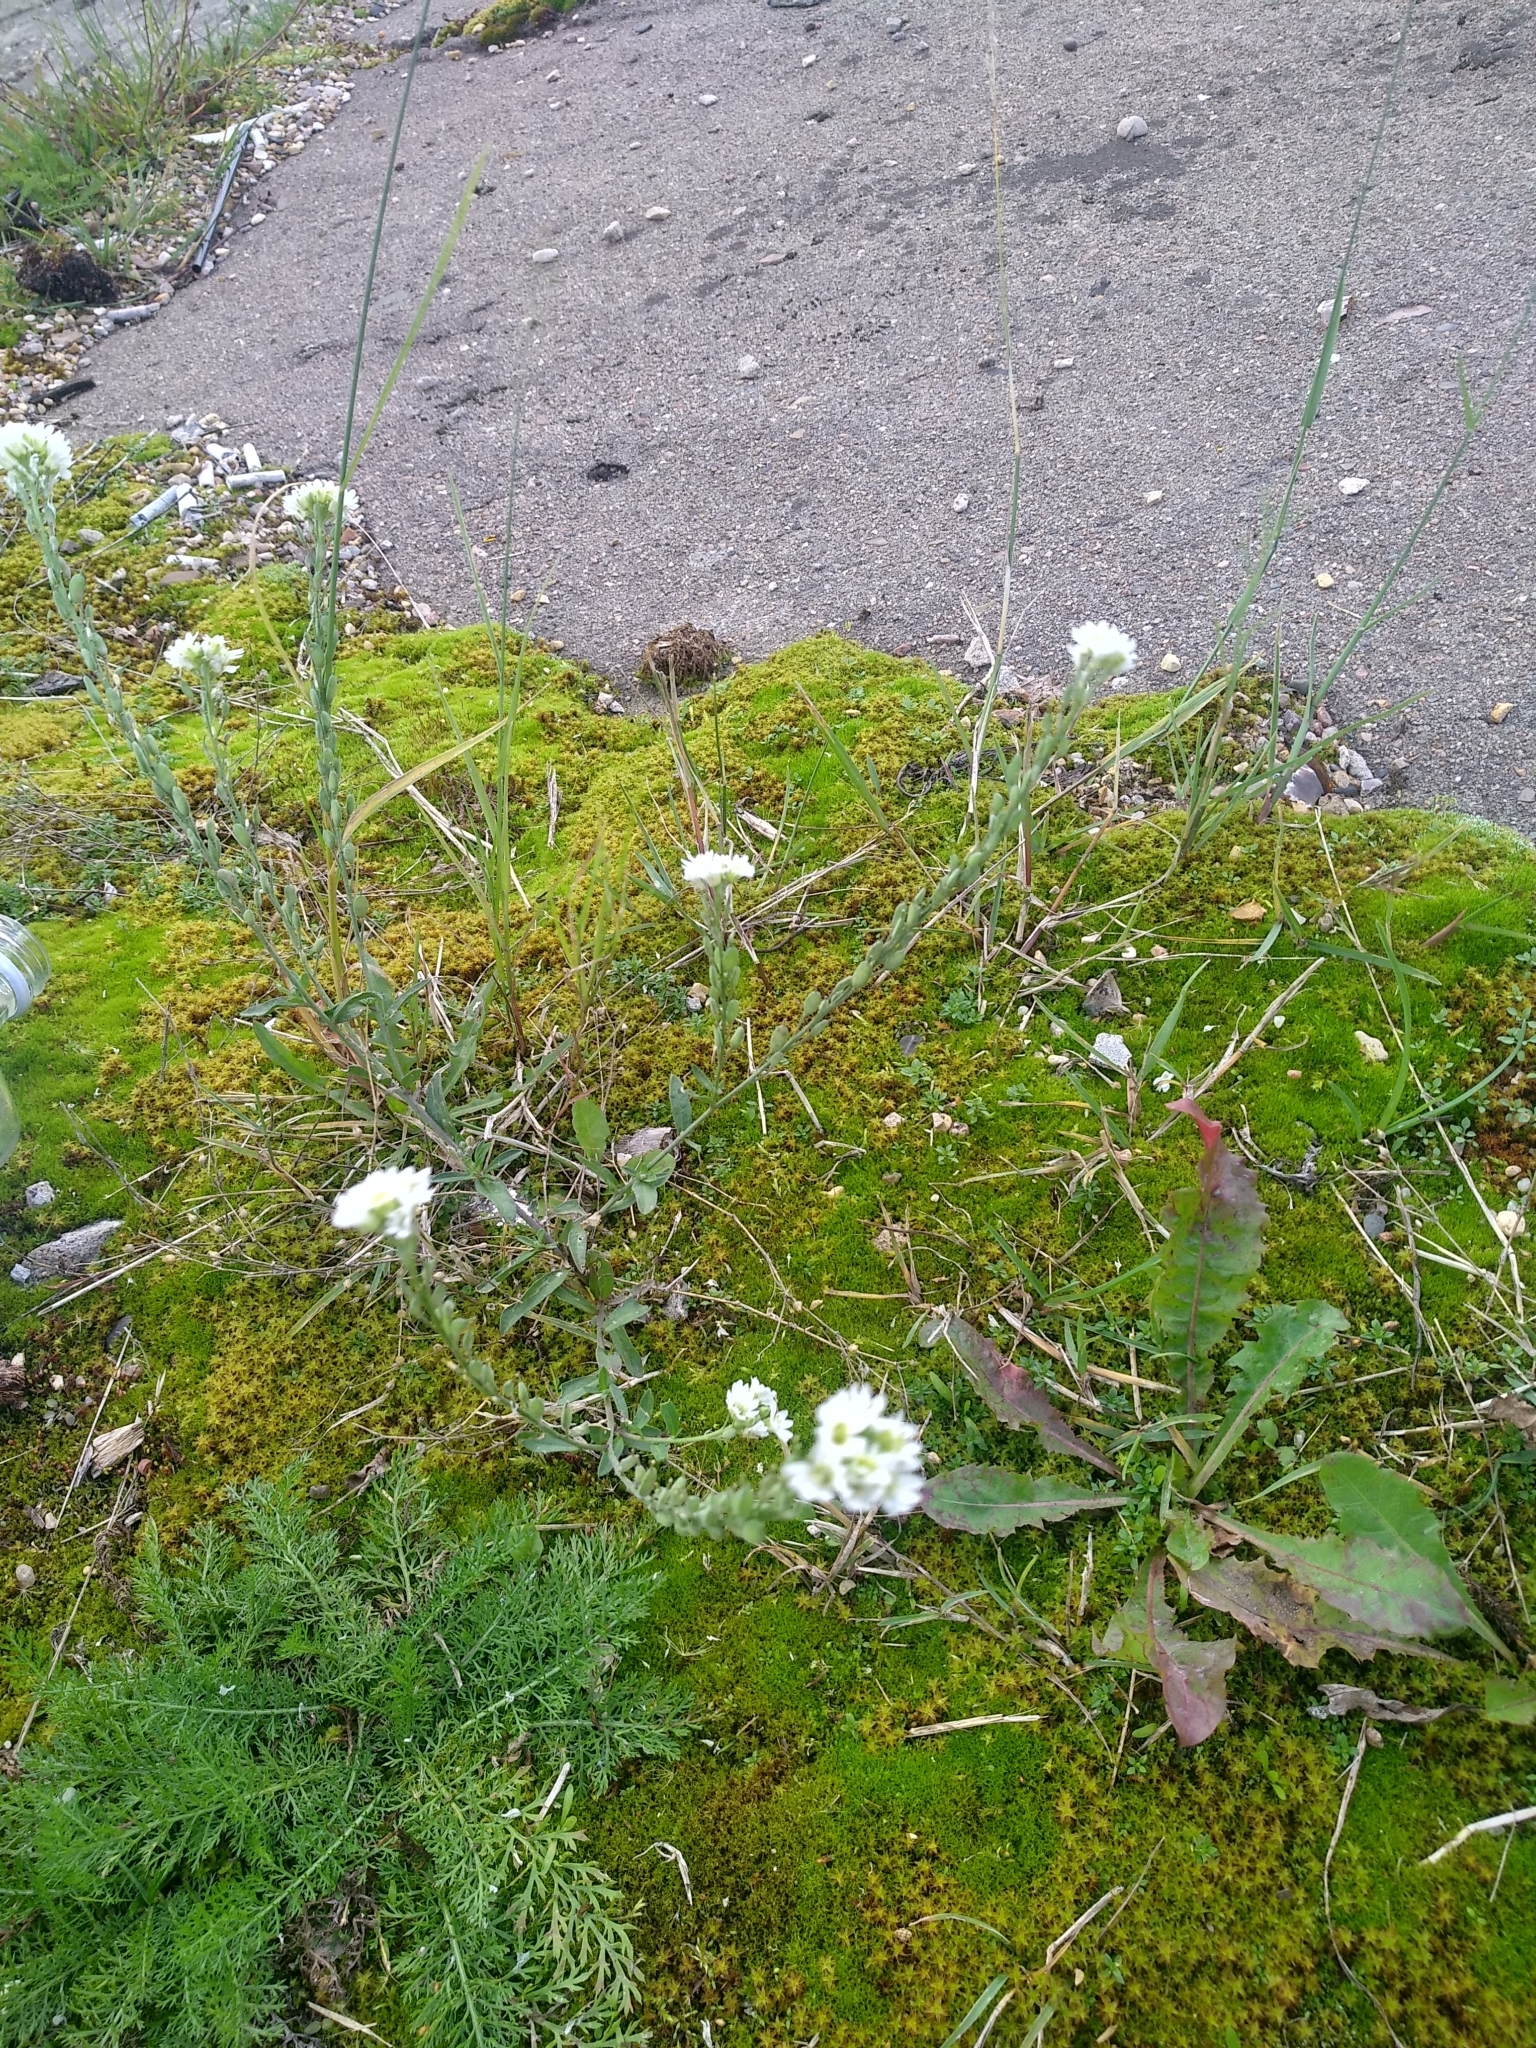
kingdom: Plantae
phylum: Tracheophyta
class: Magnoliopsida
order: Brassicales
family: Brassicaceae
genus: Berteroa
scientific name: Berteroa incana
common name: Hoary alison
